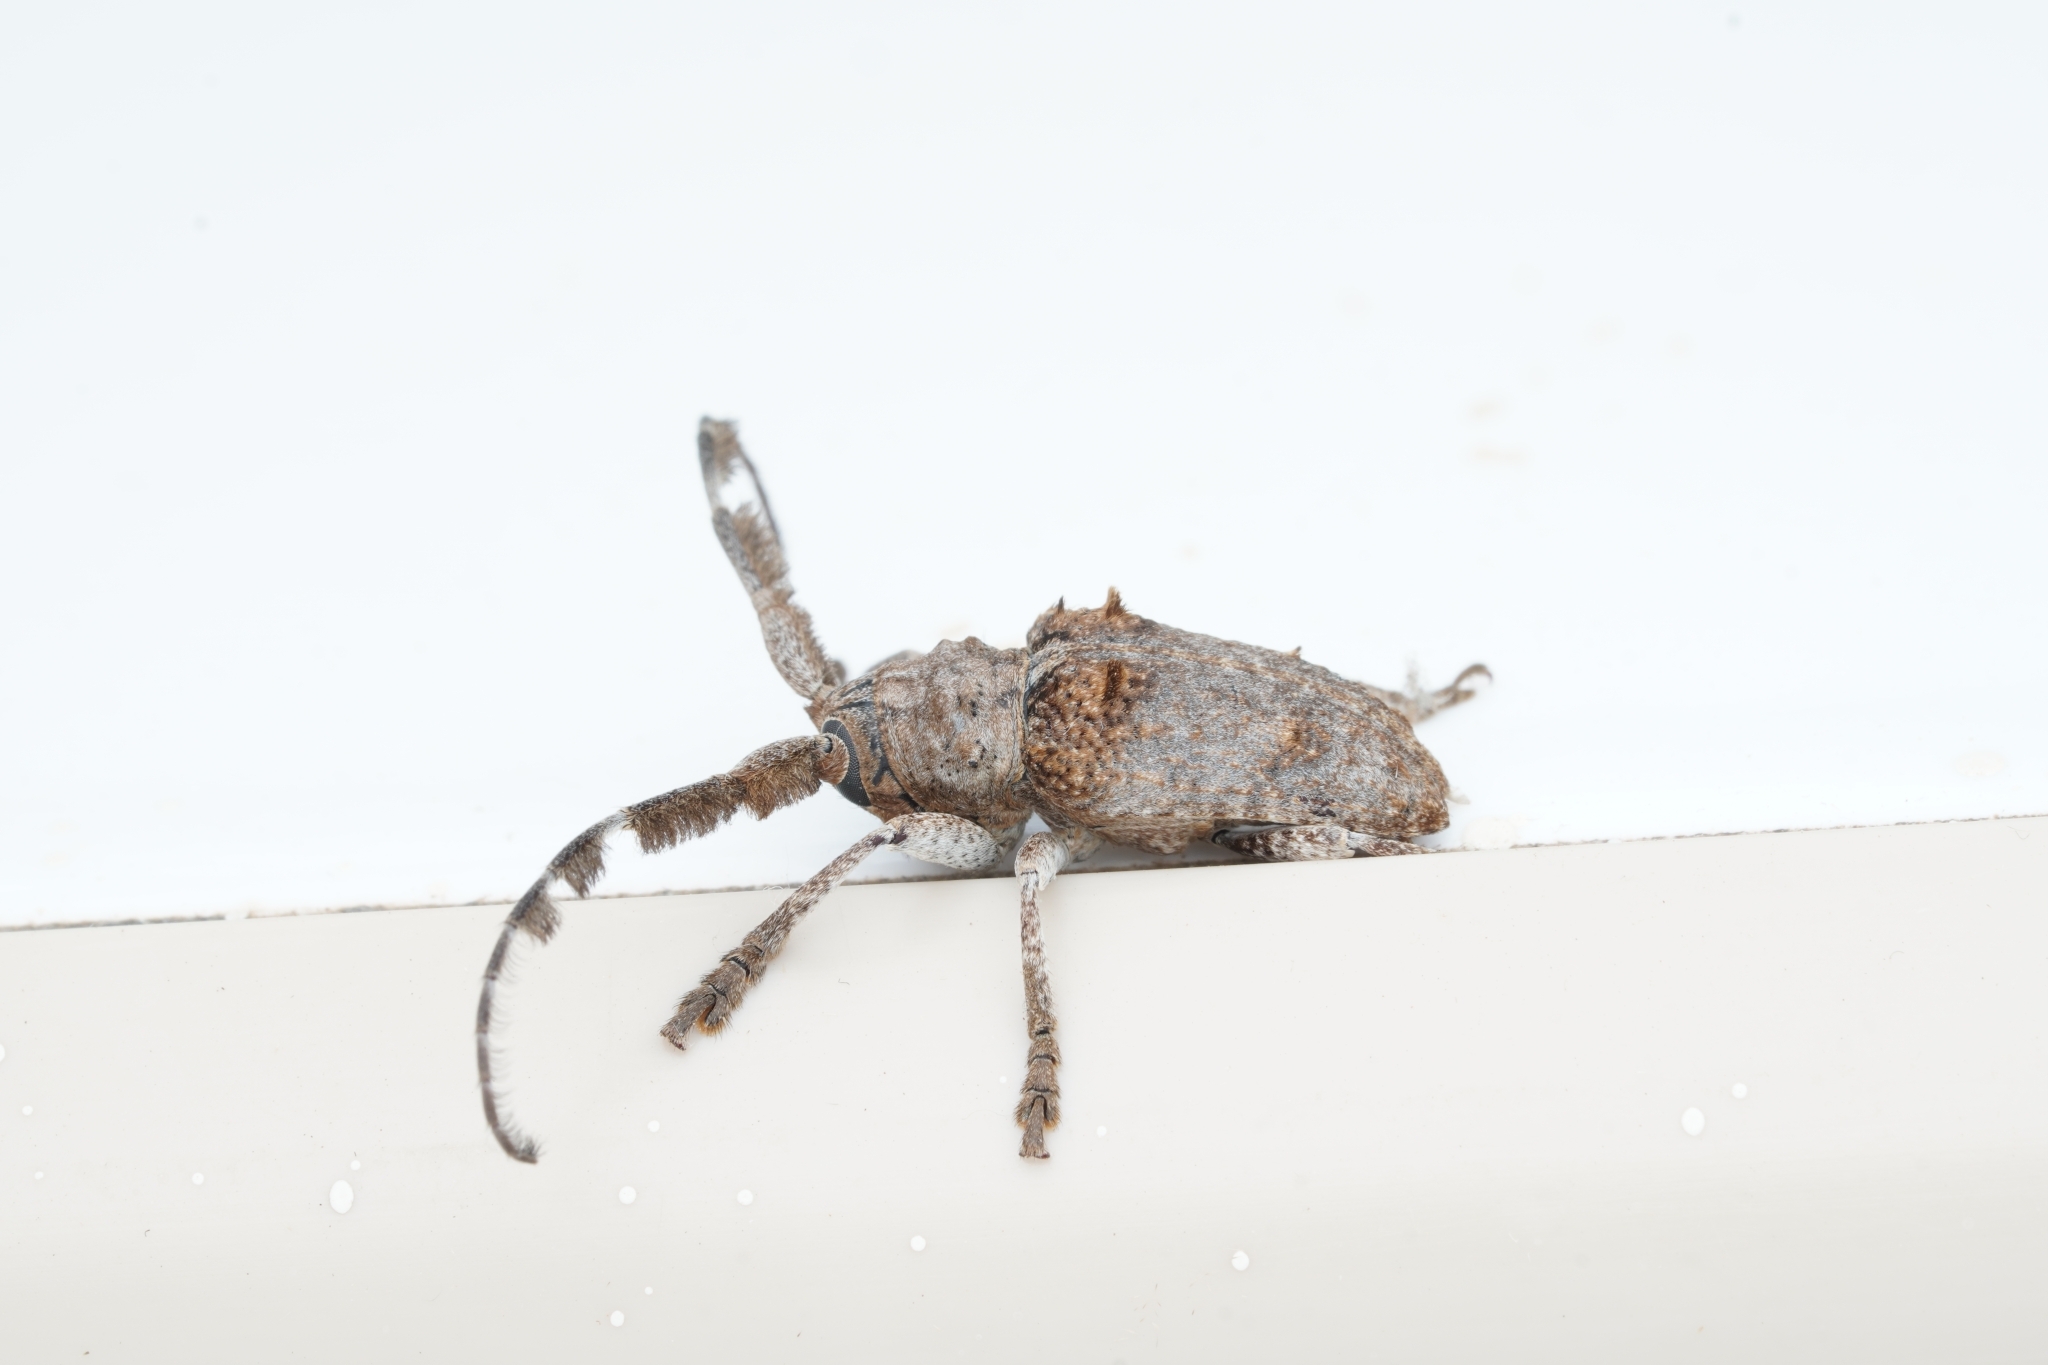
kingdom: Animalia
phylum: Arthropoda
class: Insecta
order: Coleoptera
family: Cerambycidae
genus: Crossotus
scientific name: Crossotus plumicornis
